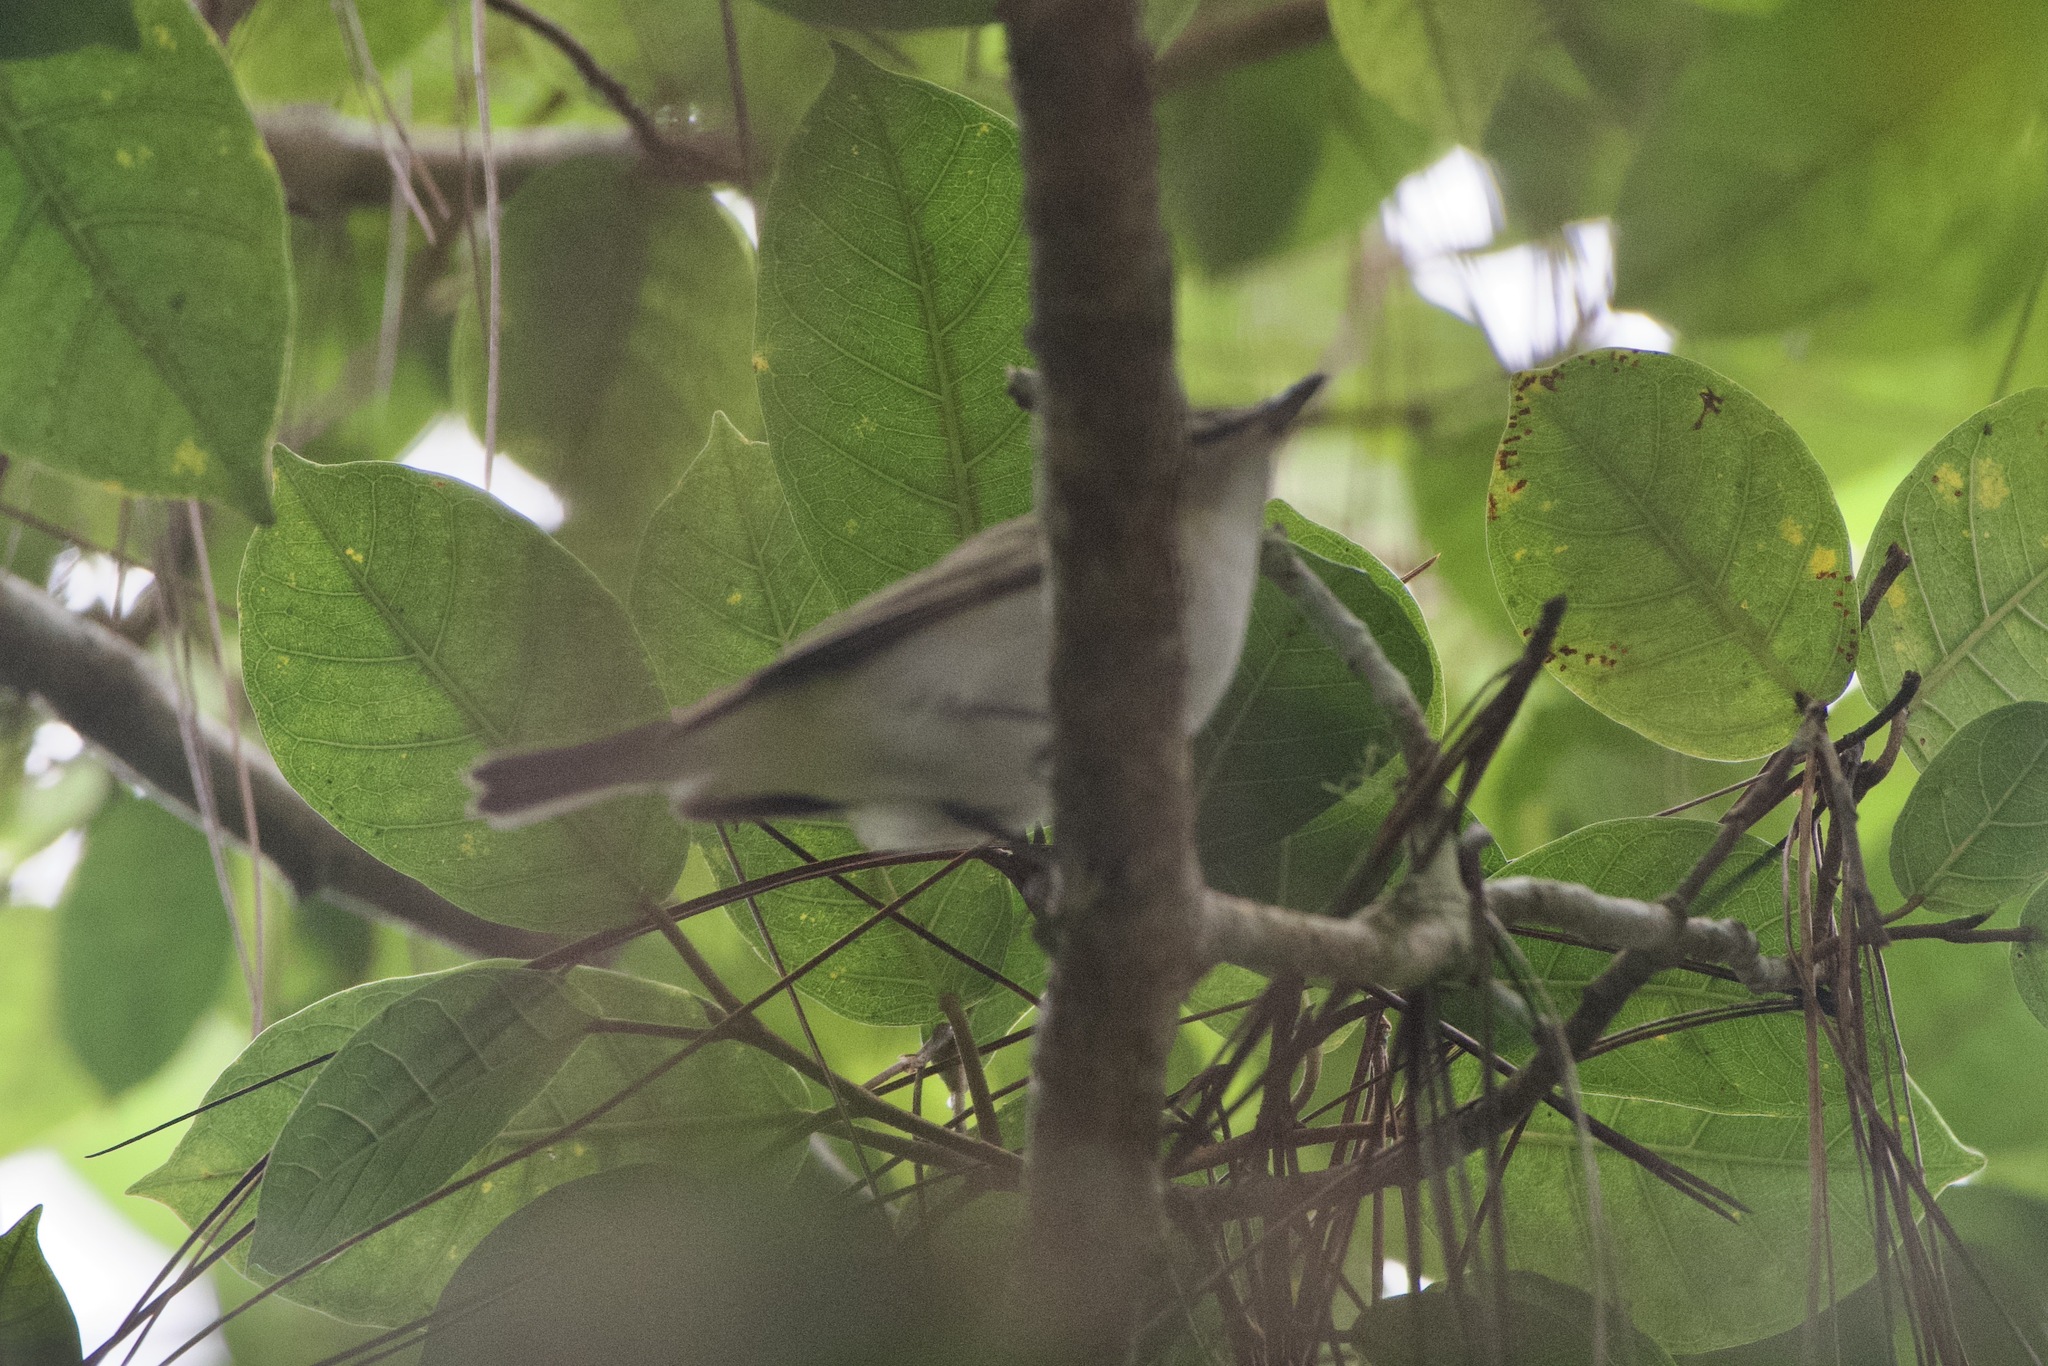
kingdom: Animalia
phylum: Chordata
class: Aves
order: Passeriformes
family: Vireonidae
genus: Vireo
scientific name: Vireo olivaceus
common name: Red-eyed vireo
